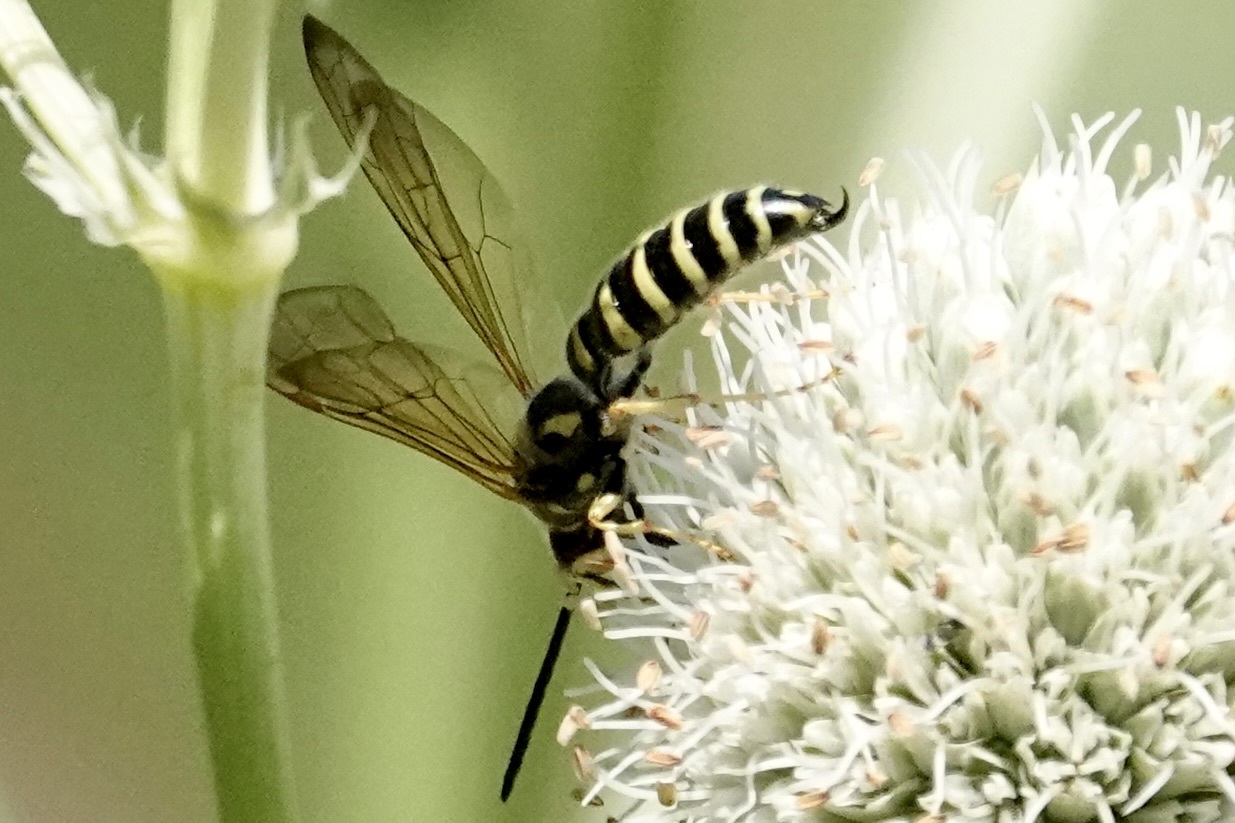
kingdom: Animalia
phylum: Arthropoda
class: Insecta
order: Hymenoptera
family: Tiphiidae
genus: Myzinum
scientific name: Myzinum quinquecinctum
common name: Five-banded thynnid wasp
